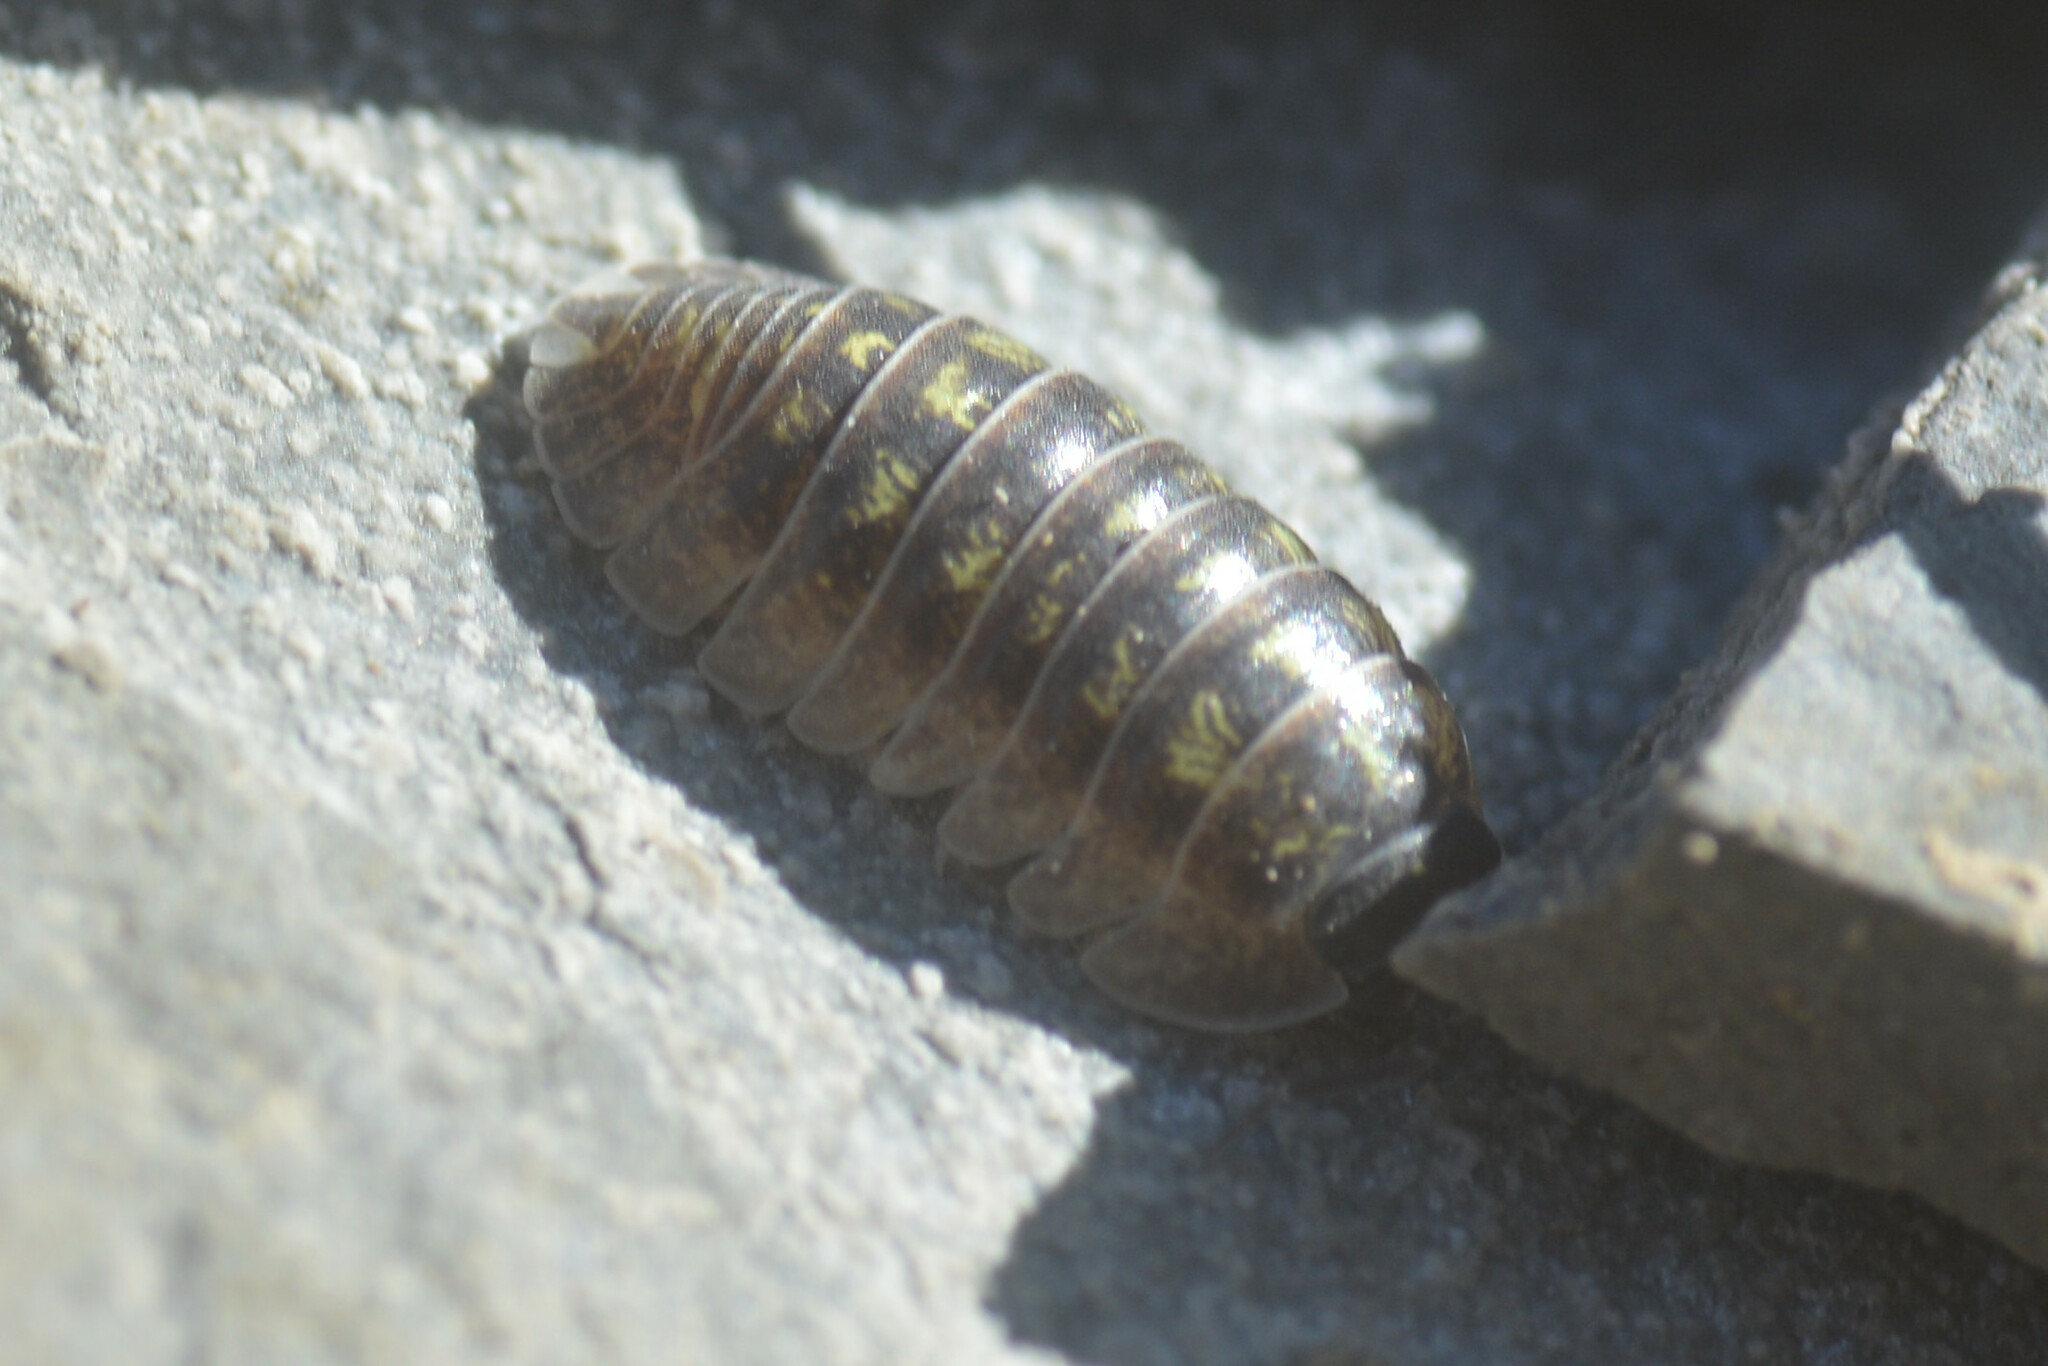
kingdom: Animalia
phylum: Arthropoda
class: Malacostraca
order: Isopoda
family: Armadillidiidae
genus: Armadillidium
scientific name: Armadillidium depressum
